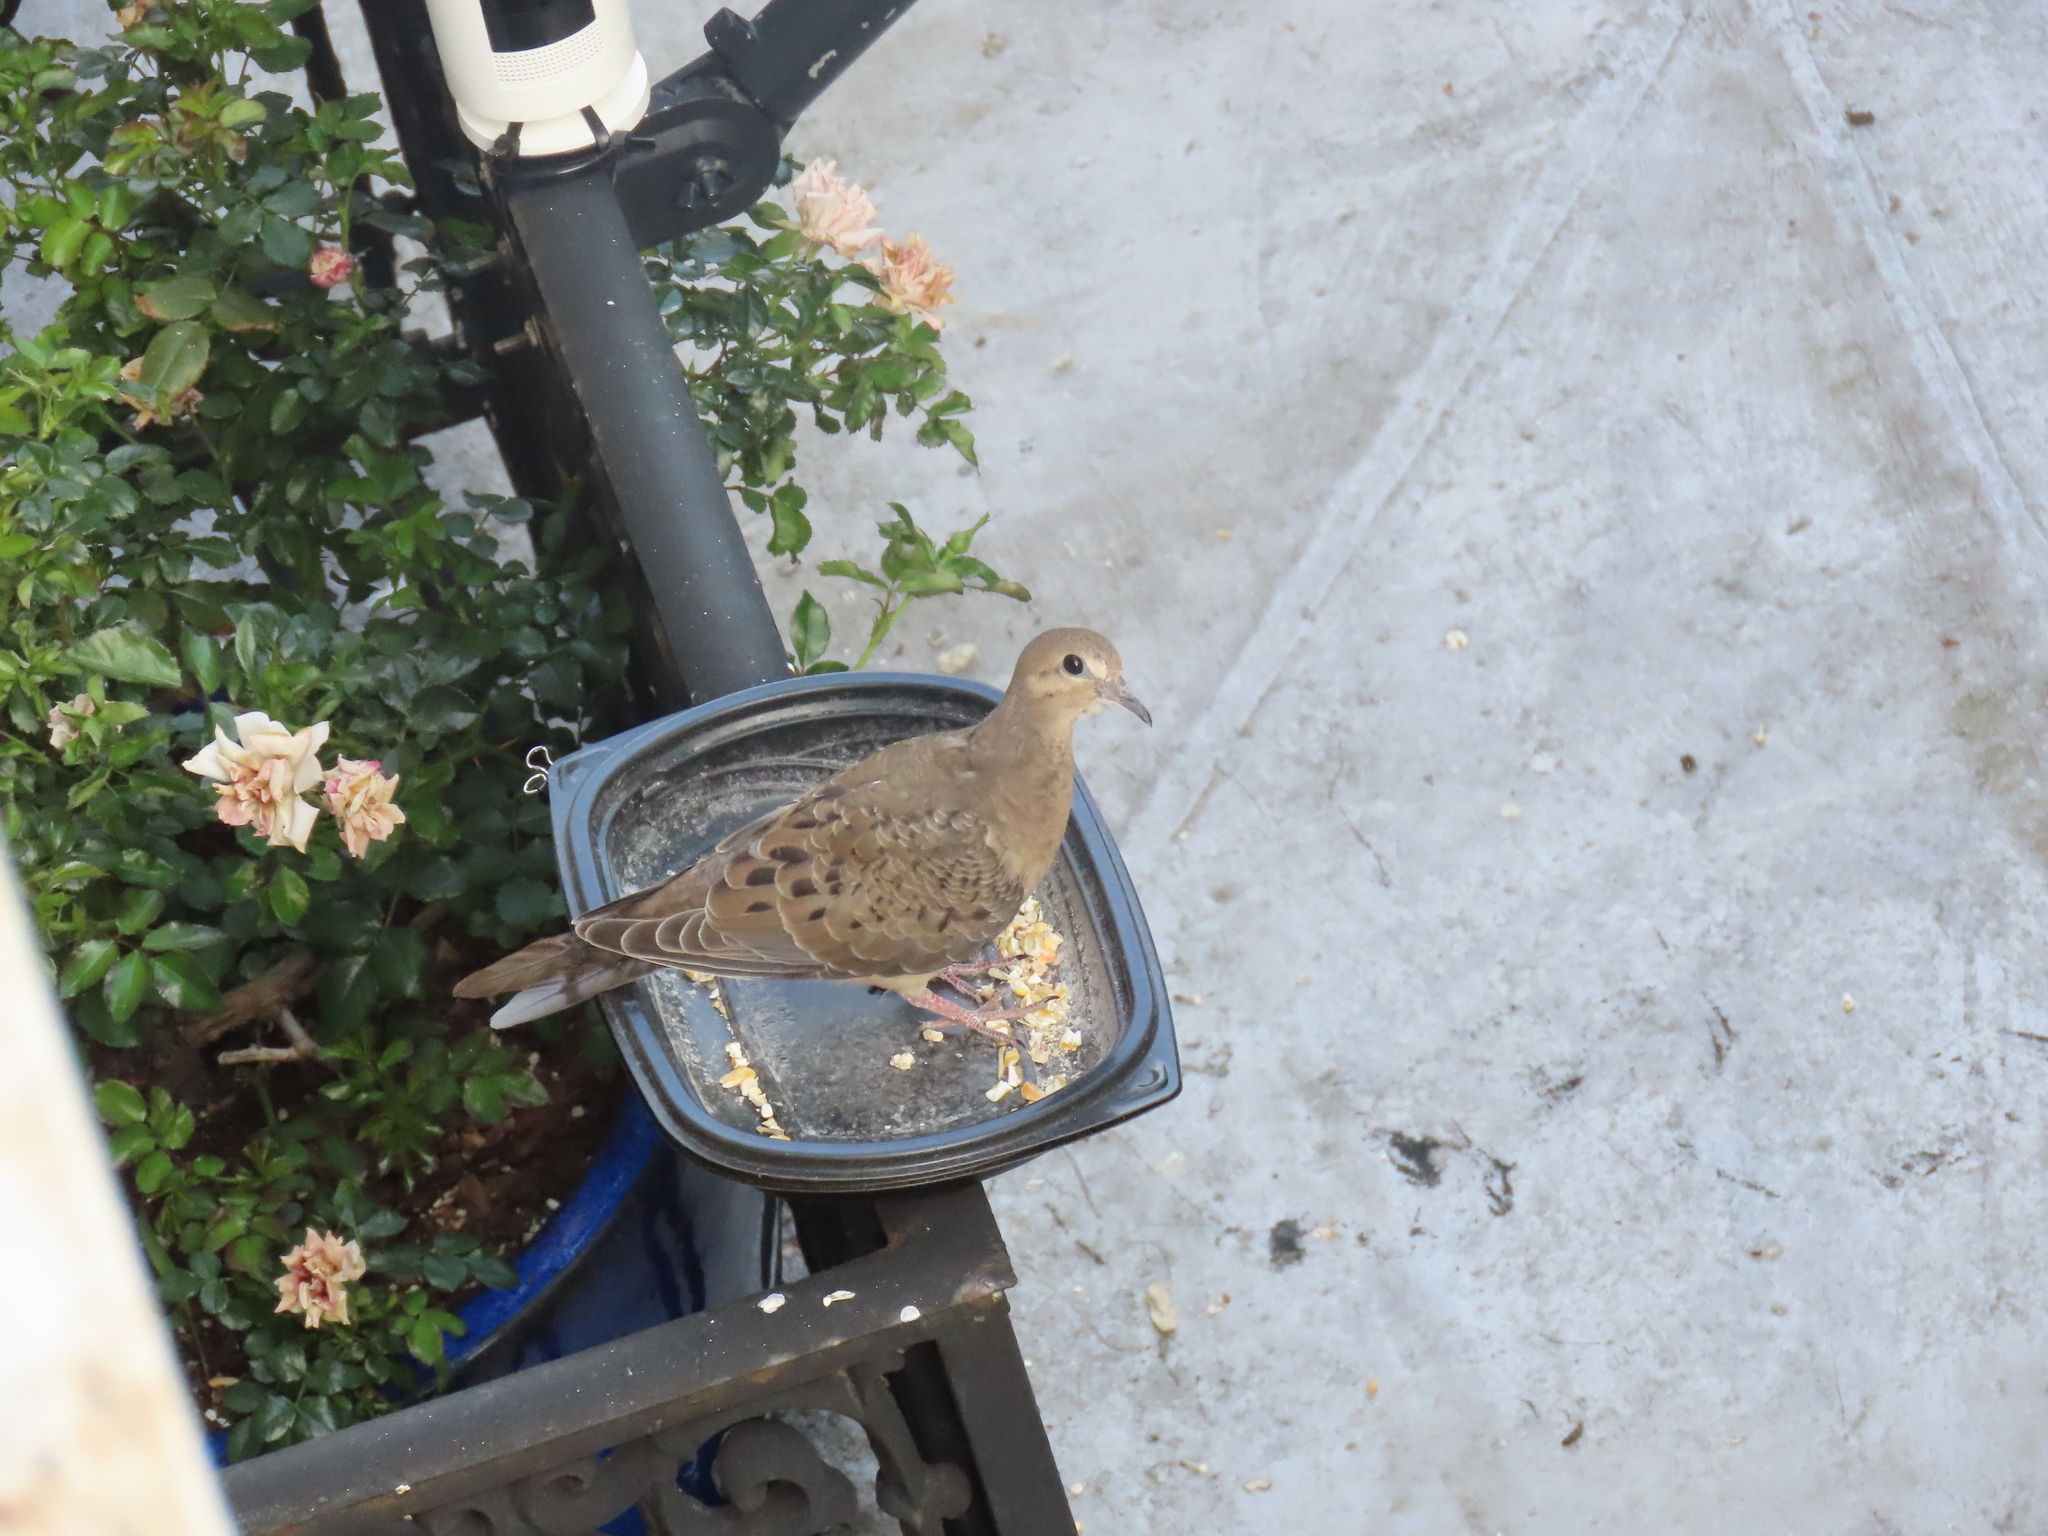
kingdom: Animalia
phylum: Chordata
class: Aves
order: Columbiformes
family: Columbidae
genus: Zenaida
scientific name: Zenaida macroura
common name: Mourning dove
